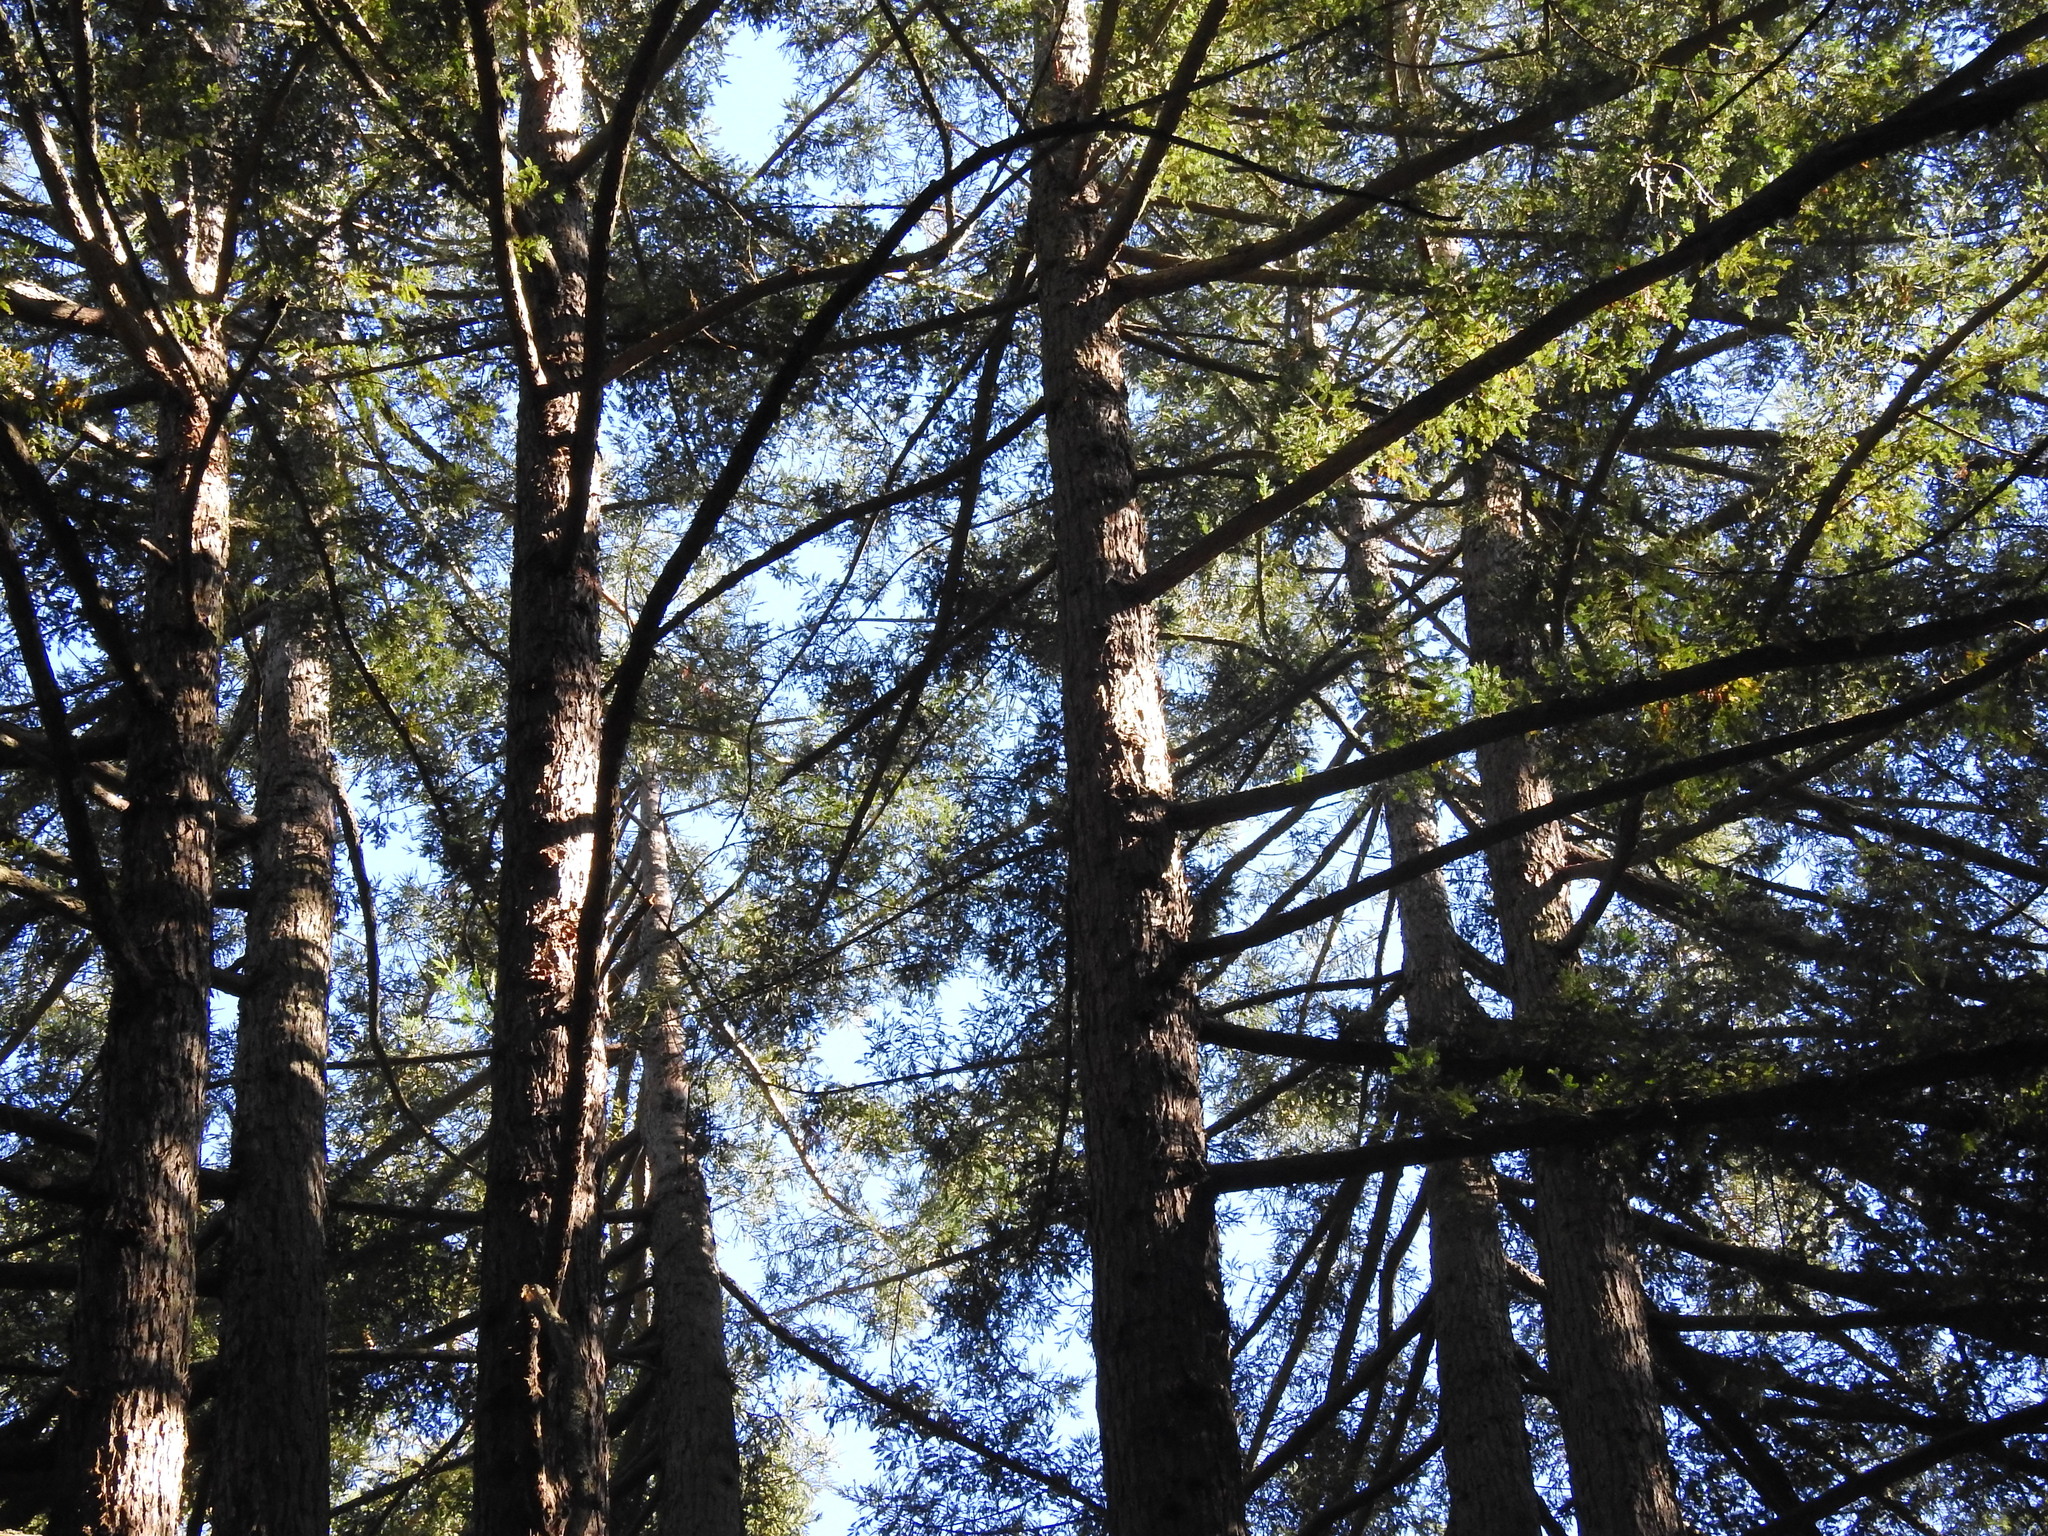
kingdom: Plantae
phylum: Tracheophyta
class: Pinopsida
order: Pinales
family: Cupressaceae
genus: Sequoia
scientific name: Sequoia sempervirens
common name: Coast redwood
